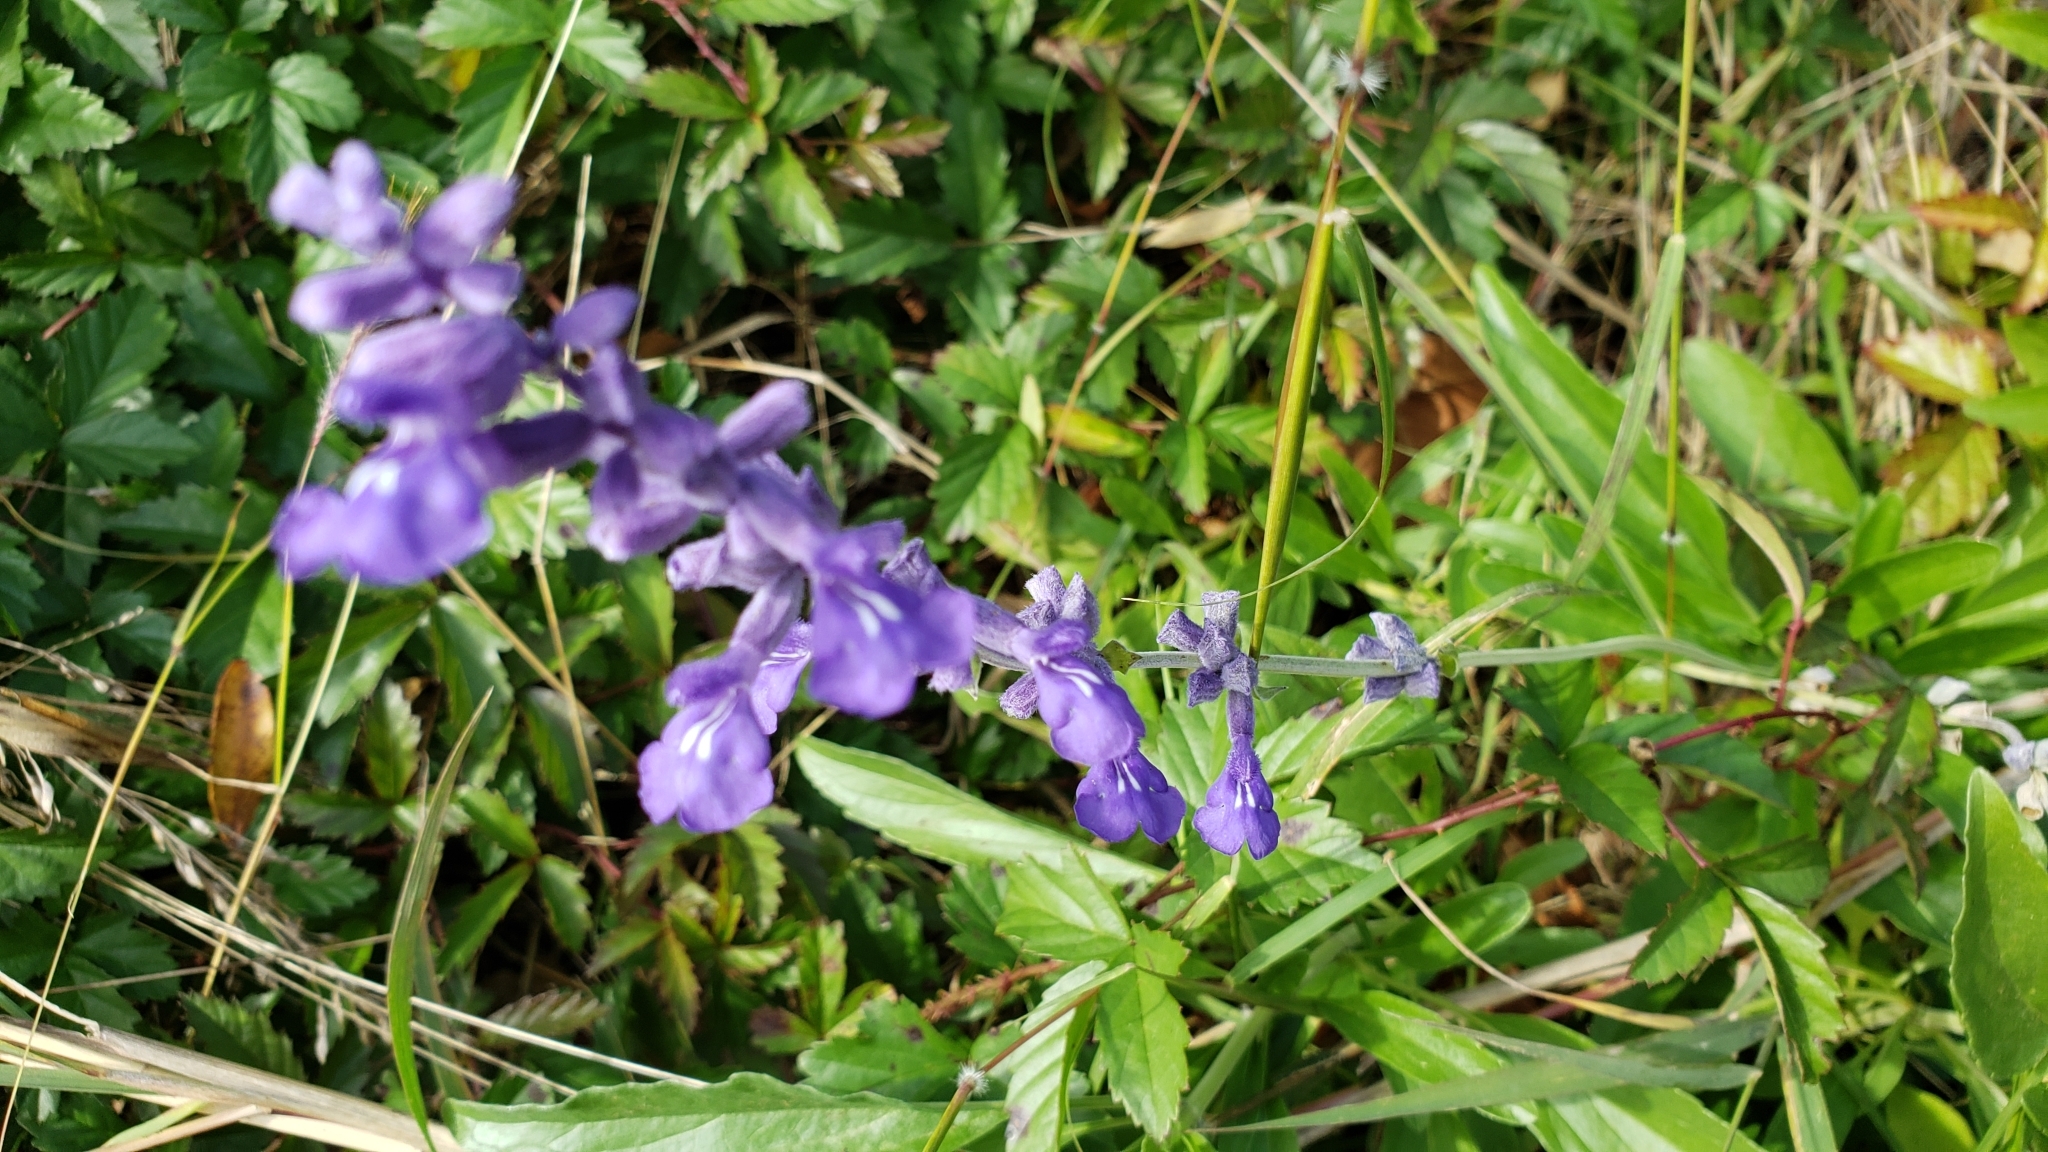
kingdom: Plantae
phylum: Tracheophyta
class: Magnoliopsida
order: Lamiales
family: Lamiaceae
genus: Salvia
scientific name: Salvia farinacea
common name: Mealy sage
